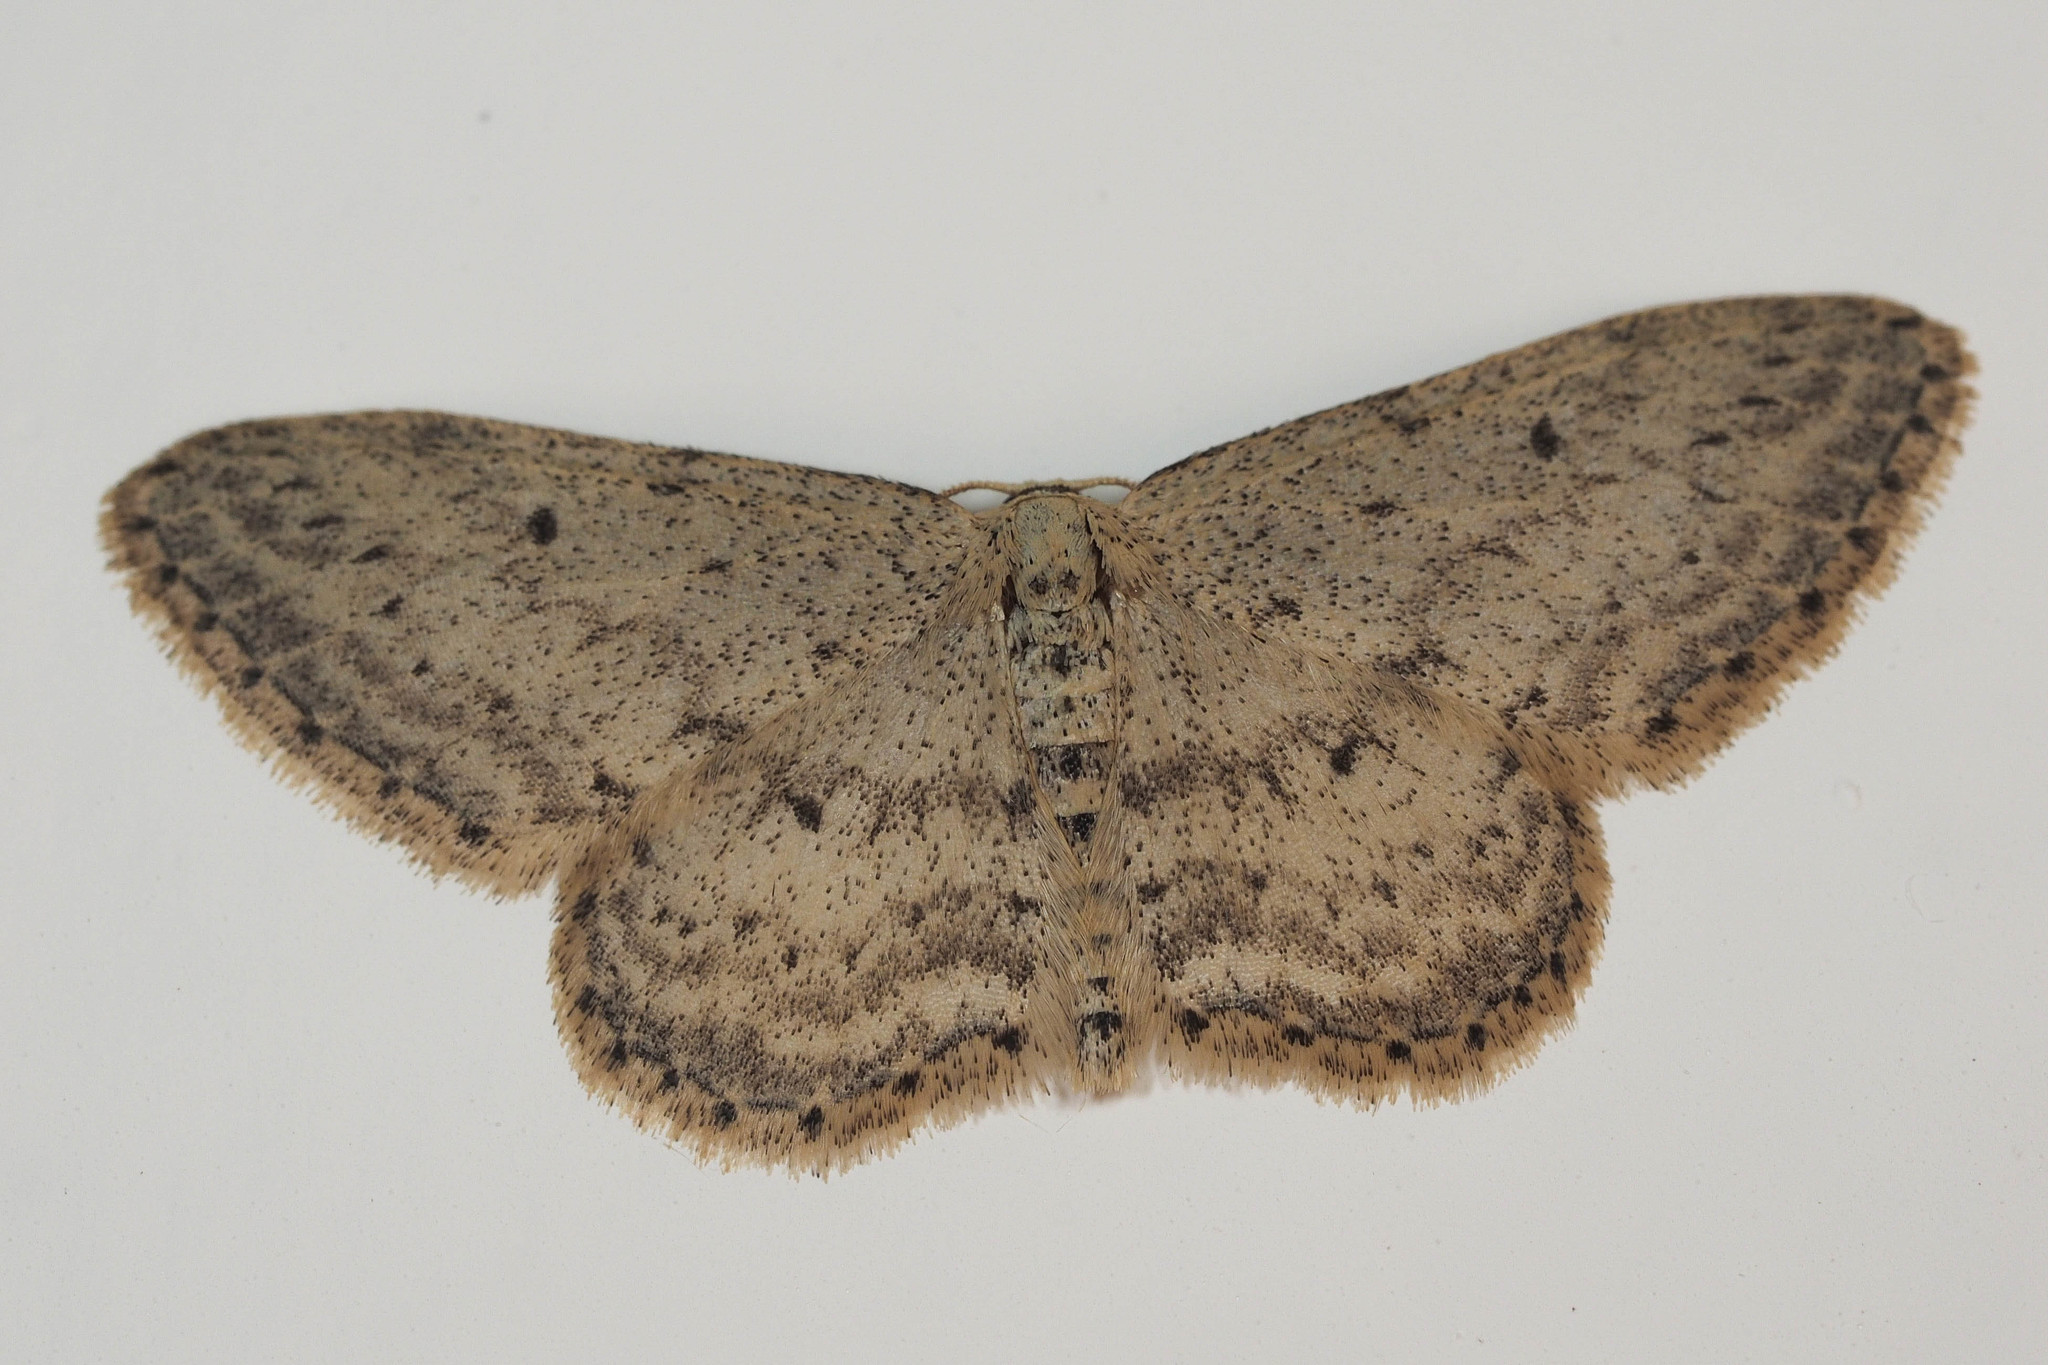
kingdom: Animalia
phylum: Arthropoda
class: Insecta
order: Lepidoptera
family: Geometridae
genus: Idaea
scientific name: Idaea seriata
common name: Small dusty wave
